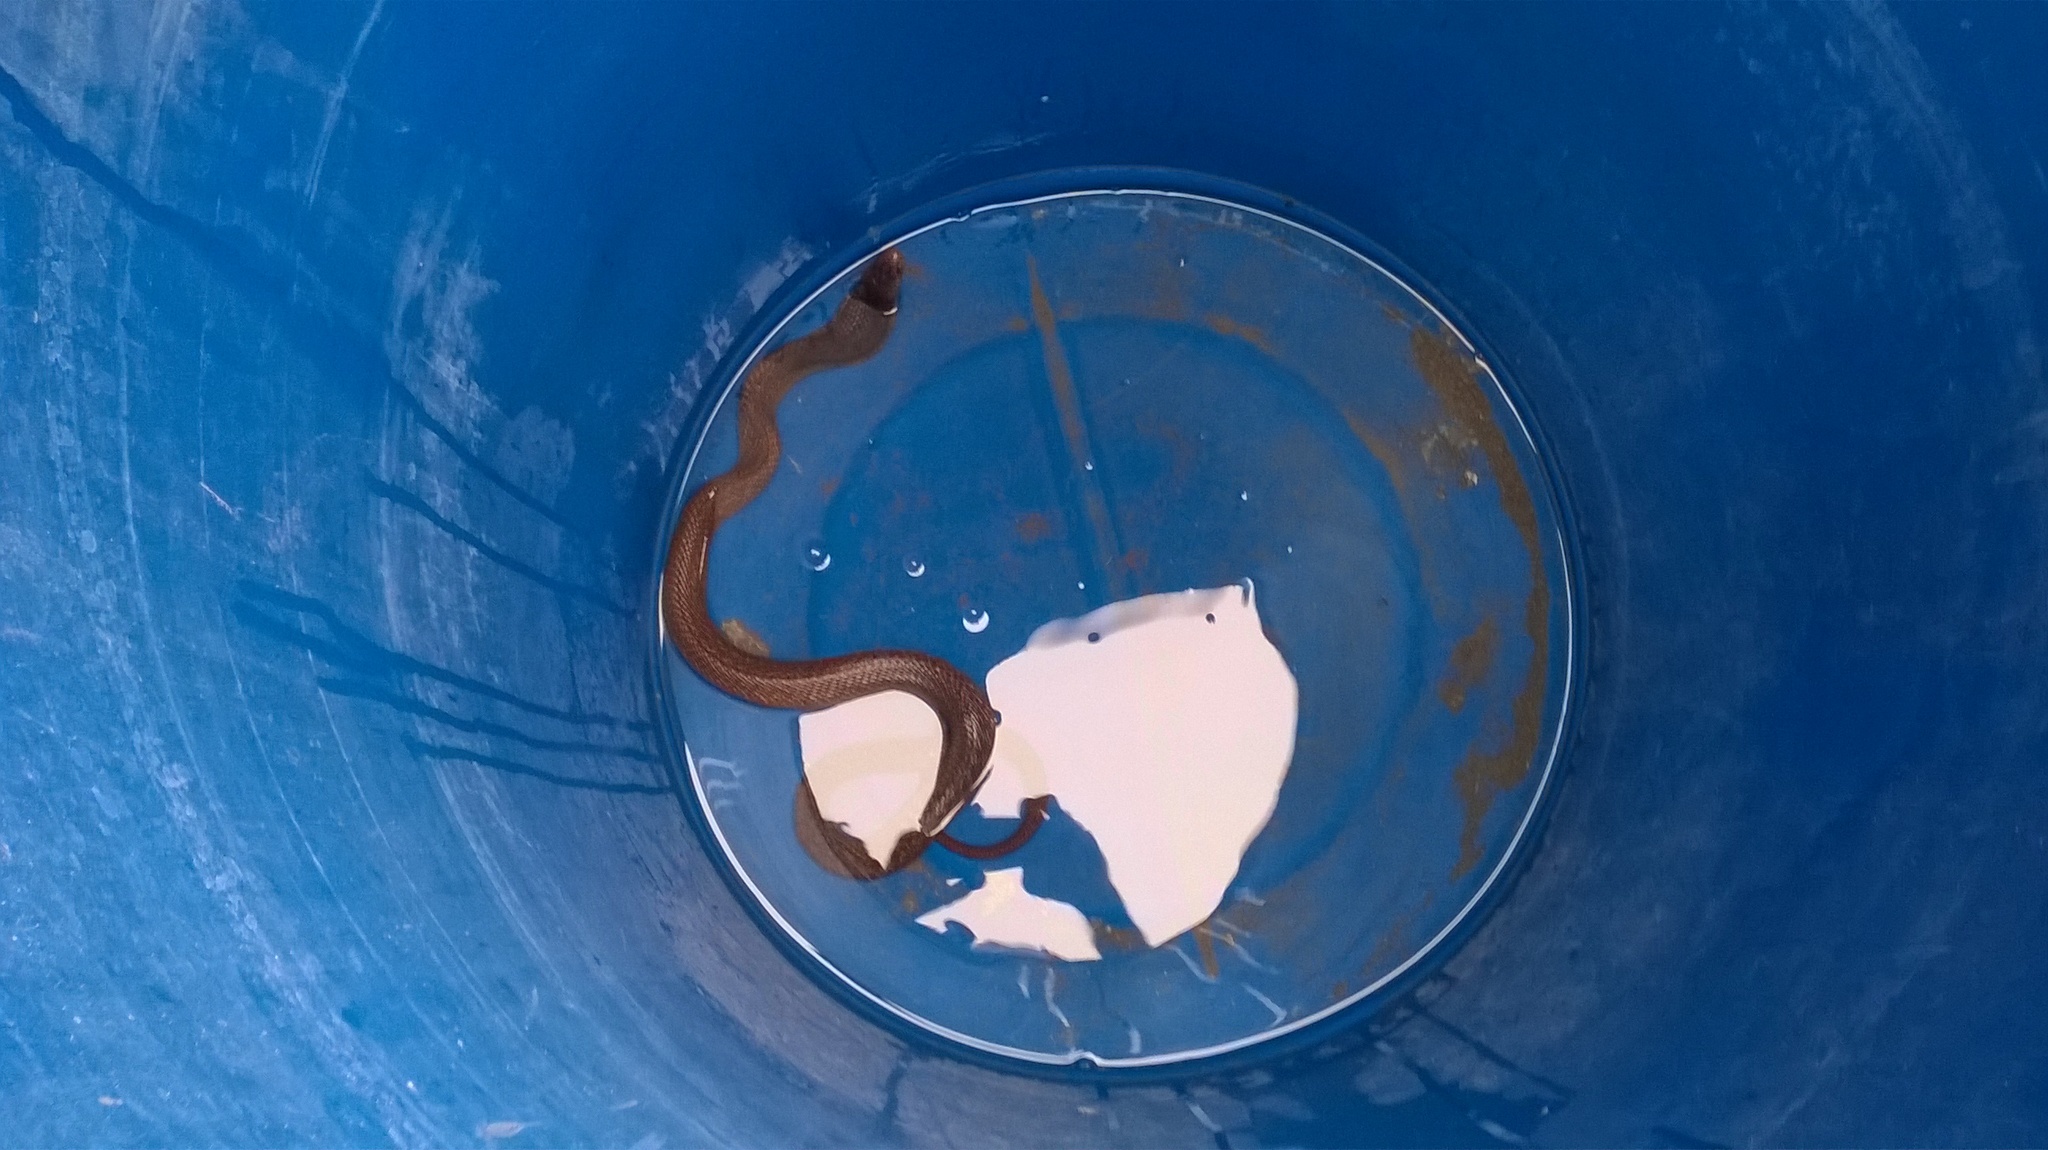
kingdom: Animalia
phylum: Chordata
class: Squamata
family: Elapidae
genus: Naja
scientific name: Naja naja
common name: Indian cobra
